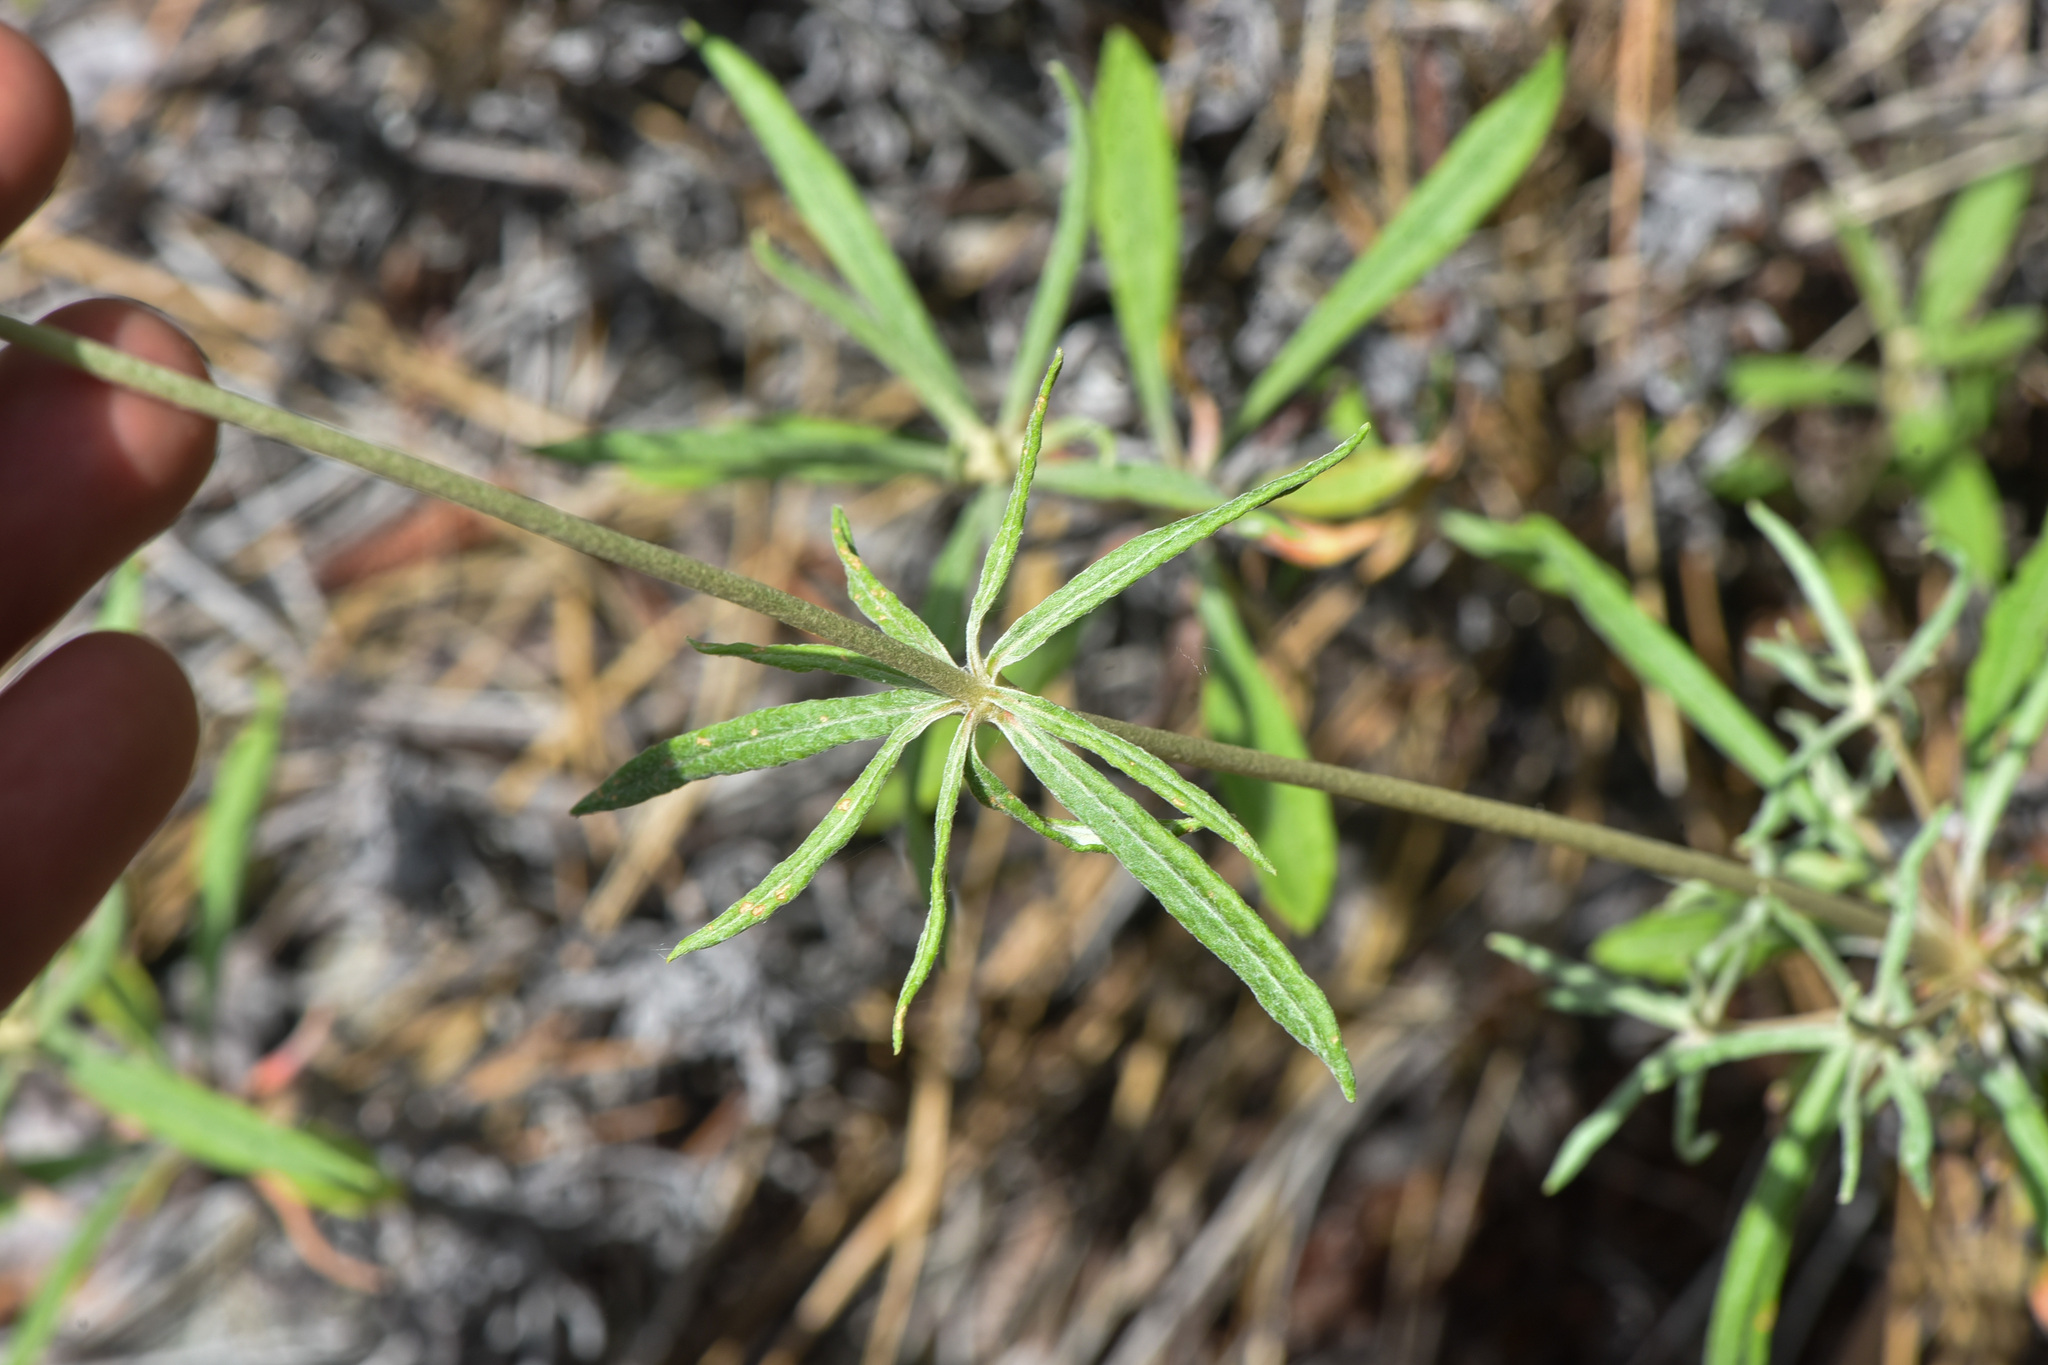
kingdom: Plantae
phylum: Tracheophyta
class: Magnoliopsida
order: Caryophyllales
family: Polygonaceae
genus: Eriogonum
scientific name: Eriogonum heracleoides
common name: Wyeth's buckwheat
